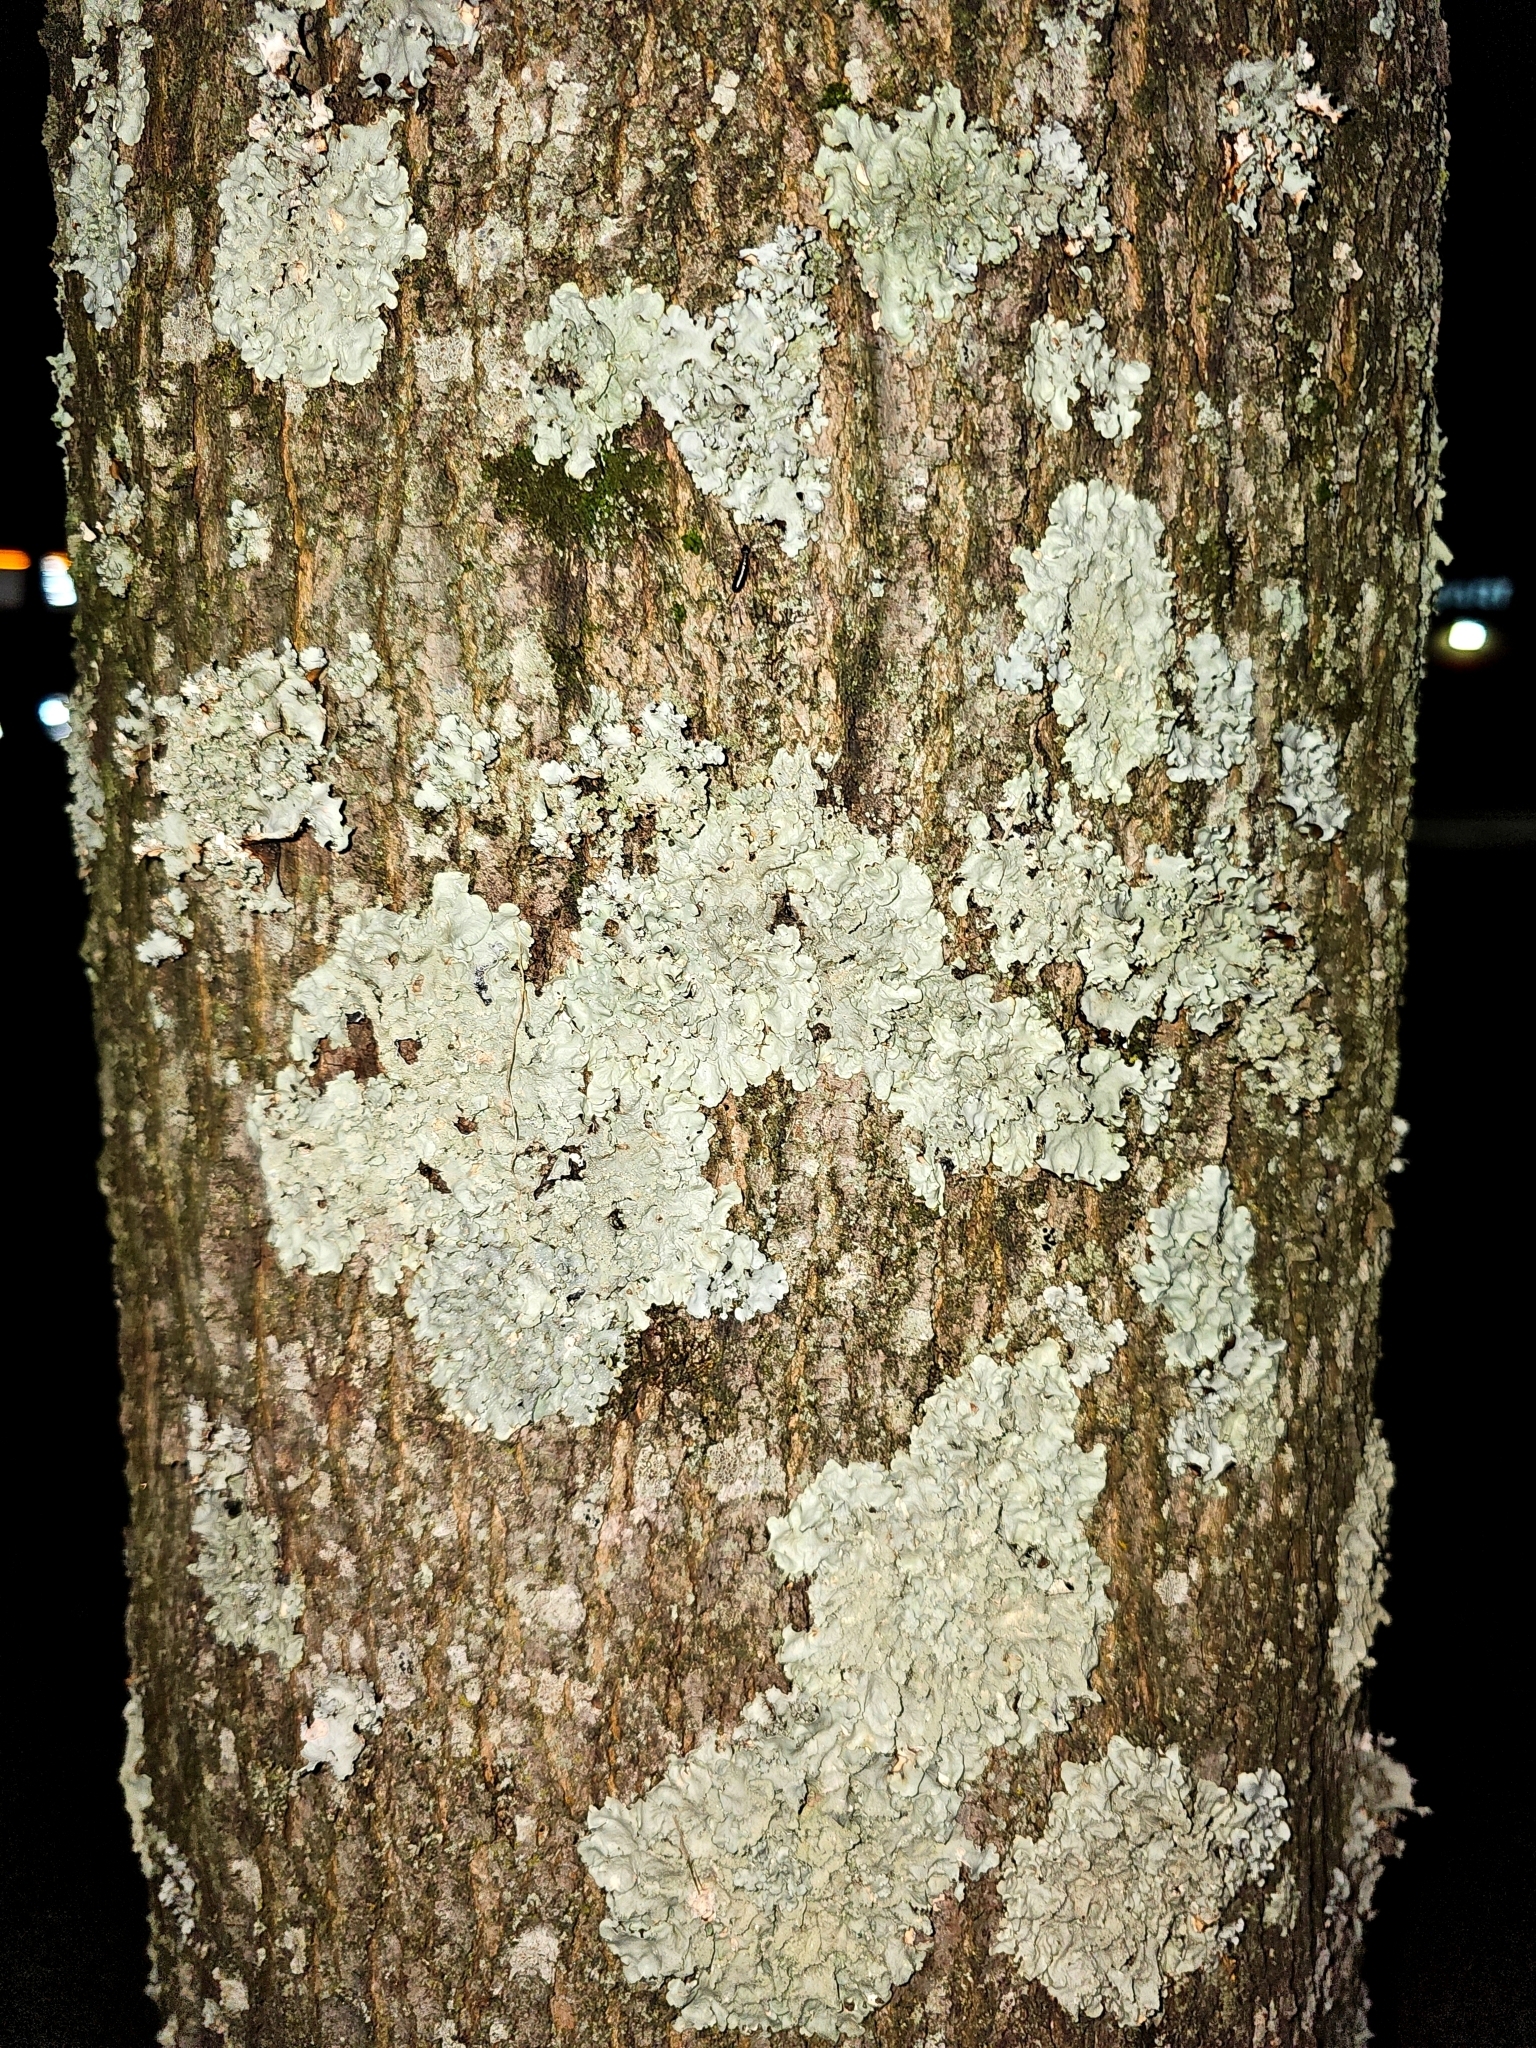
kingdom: Fungi
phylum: Ascomycota
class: Lecanoromycetes
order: Lecanorales
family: Parmeliaceae
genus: Flavoparmelia
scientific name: Flavoparmelia caperata
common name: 40-mile per hour lichen
